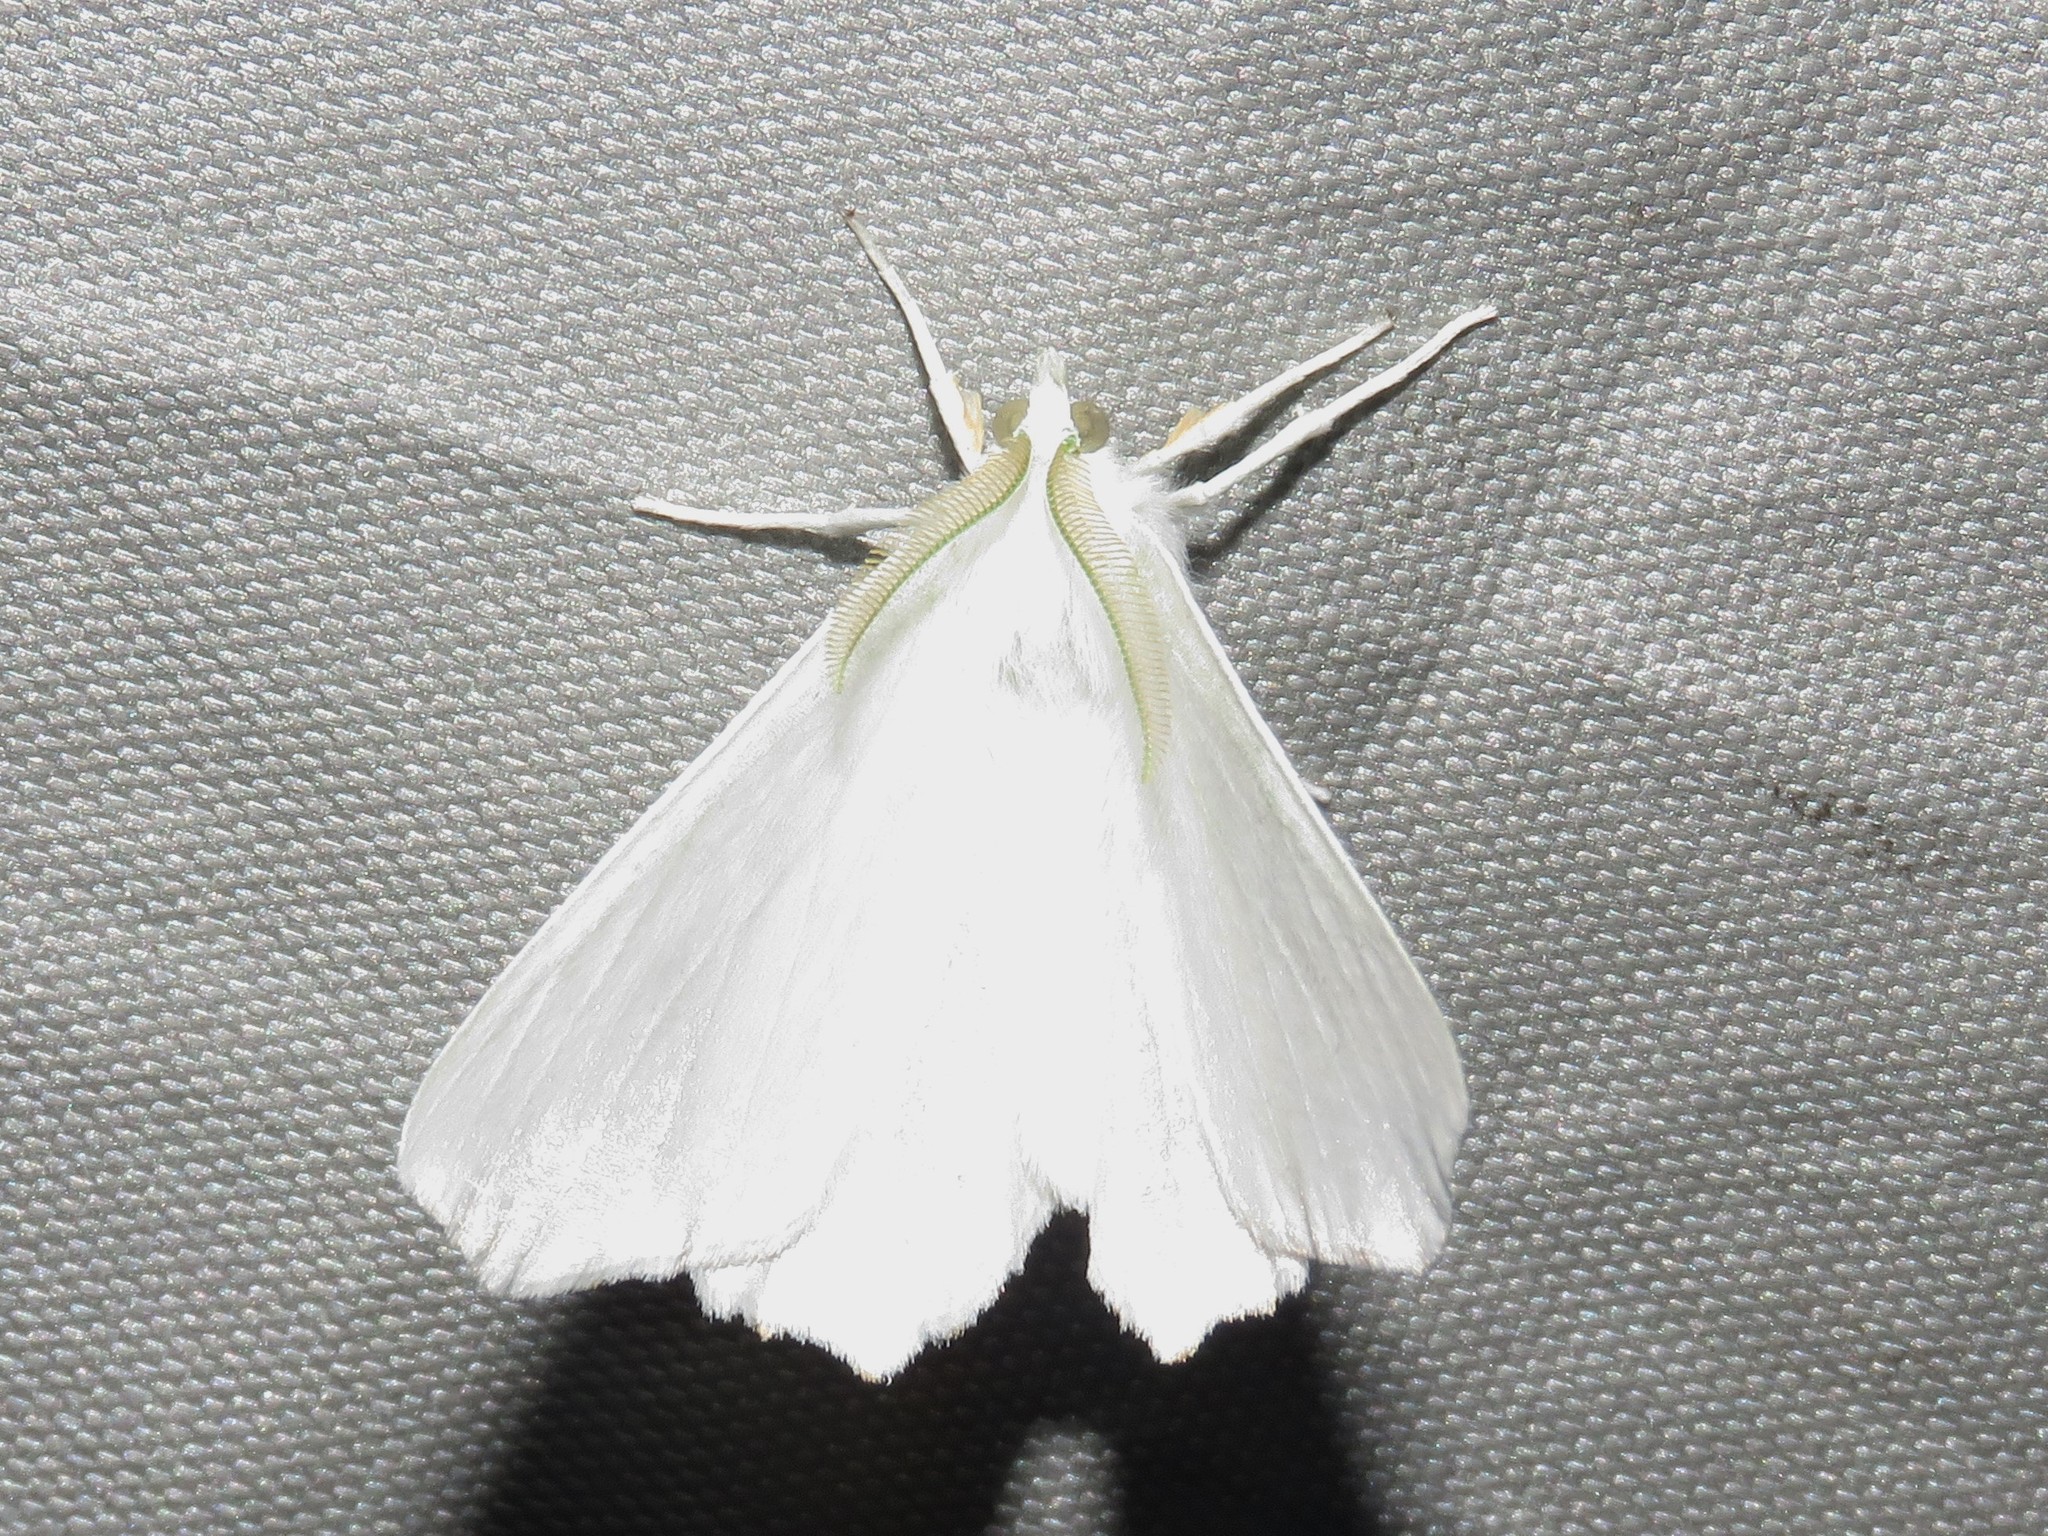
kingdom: Animalia
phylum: Arthropoda
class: Insecta
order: Lepidoptera
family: Geometridae
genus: Ennomos
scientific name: Ennomos subsignaria
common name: Elm spanworm
